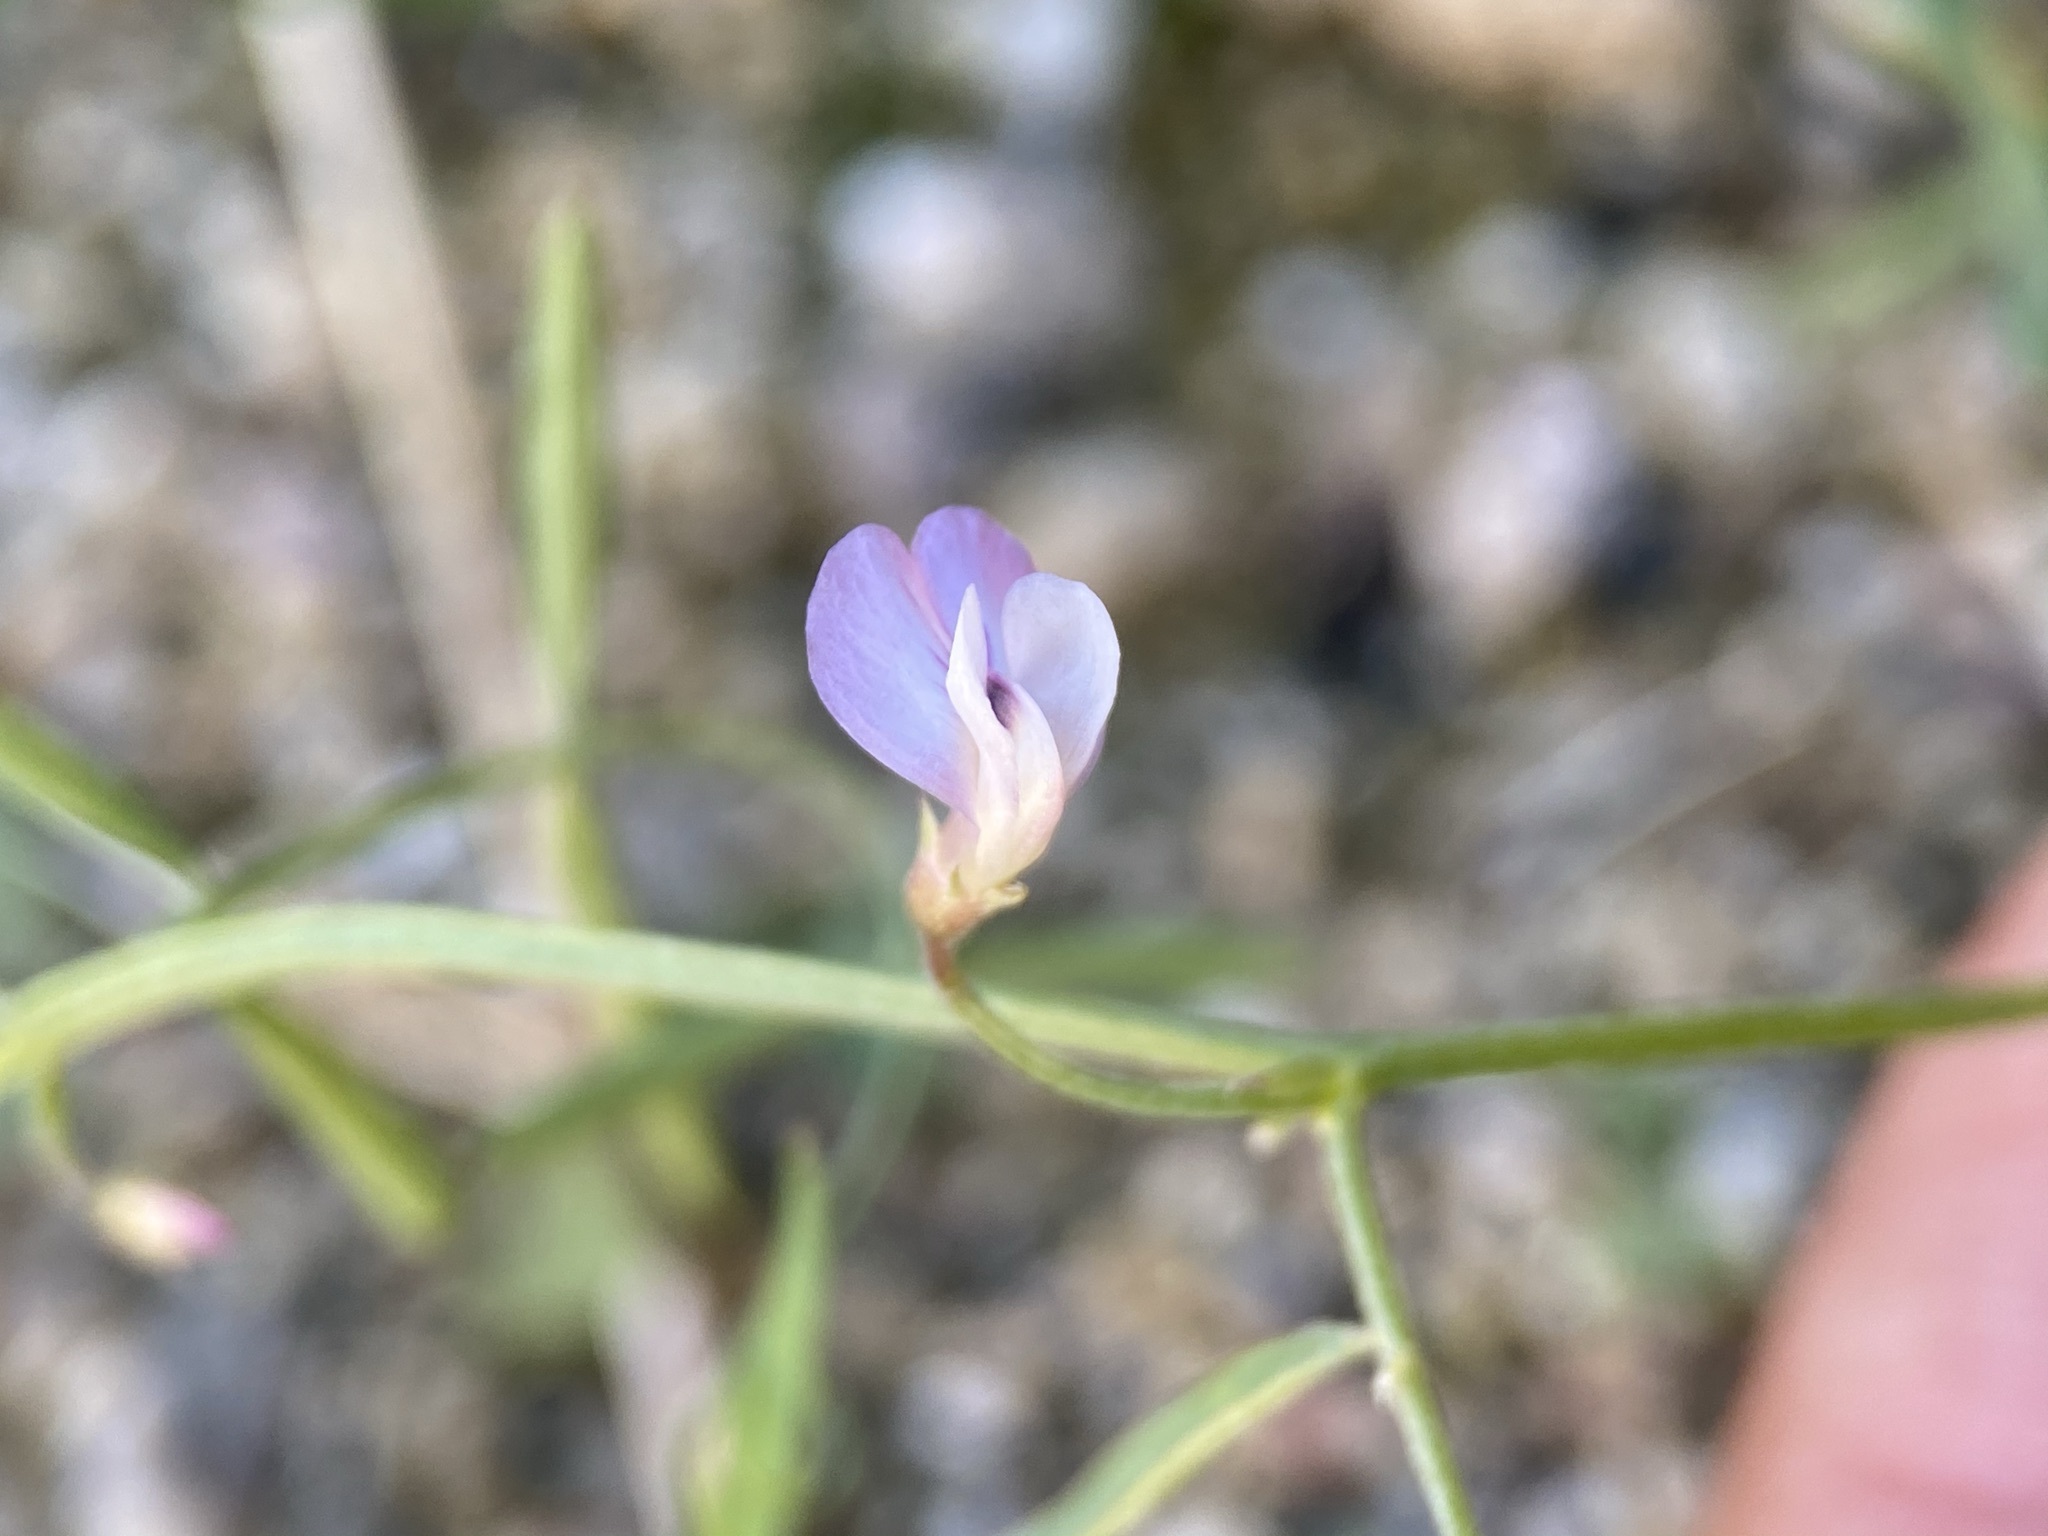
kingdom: Plantae
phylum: Tracheophyta
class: Magnoliopsida
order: Fabales
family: Fabaceae
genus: Vicia
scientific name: Vicia ludoviciana
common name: Louisiana vetch
